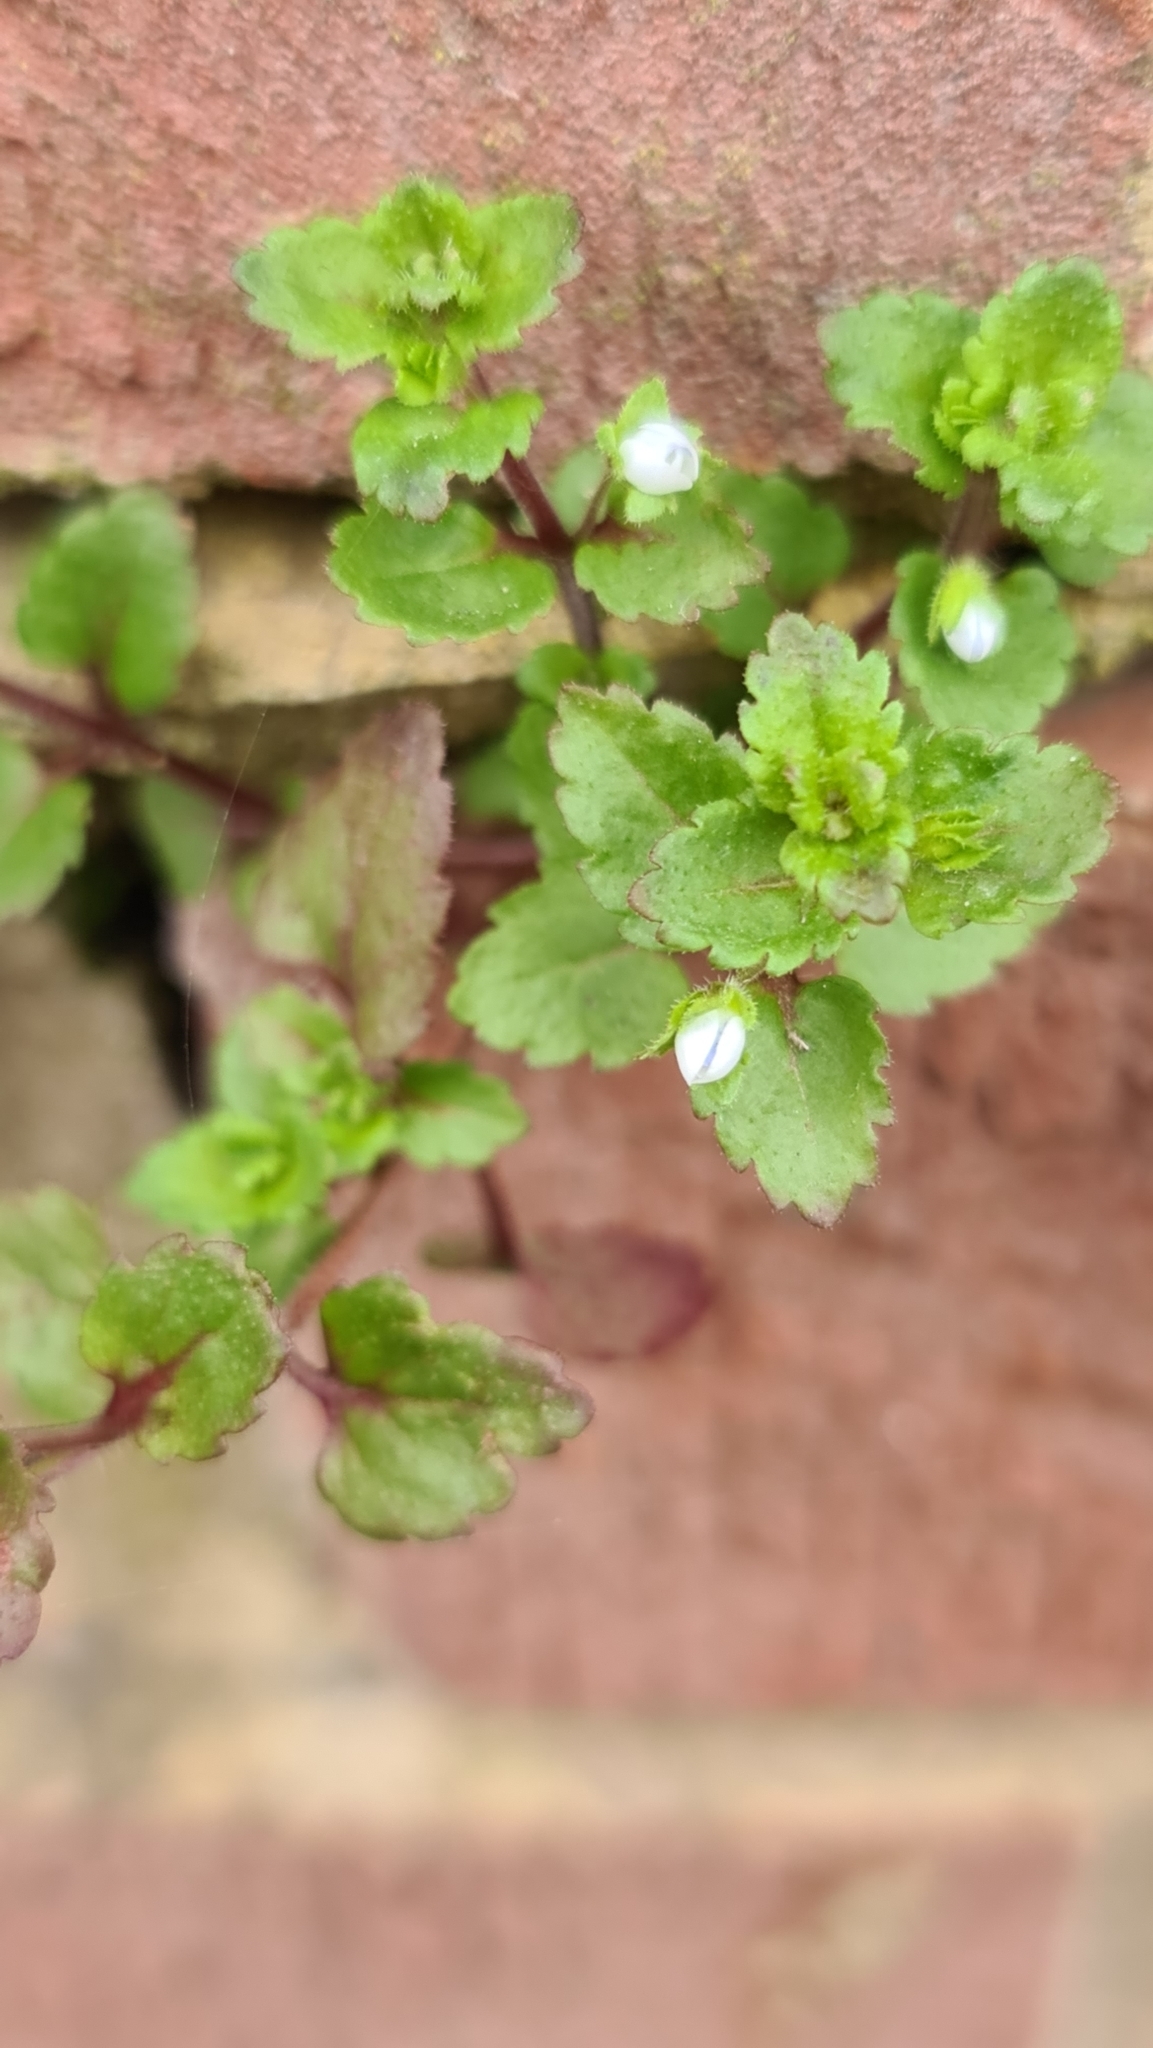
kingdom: Plantae
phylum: Tracheophyta
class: Magnoliopsida
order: Lamiales
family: Plantaginaceae
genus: Veronica
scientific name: Veronica agrestis
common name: Green field-speedwell
